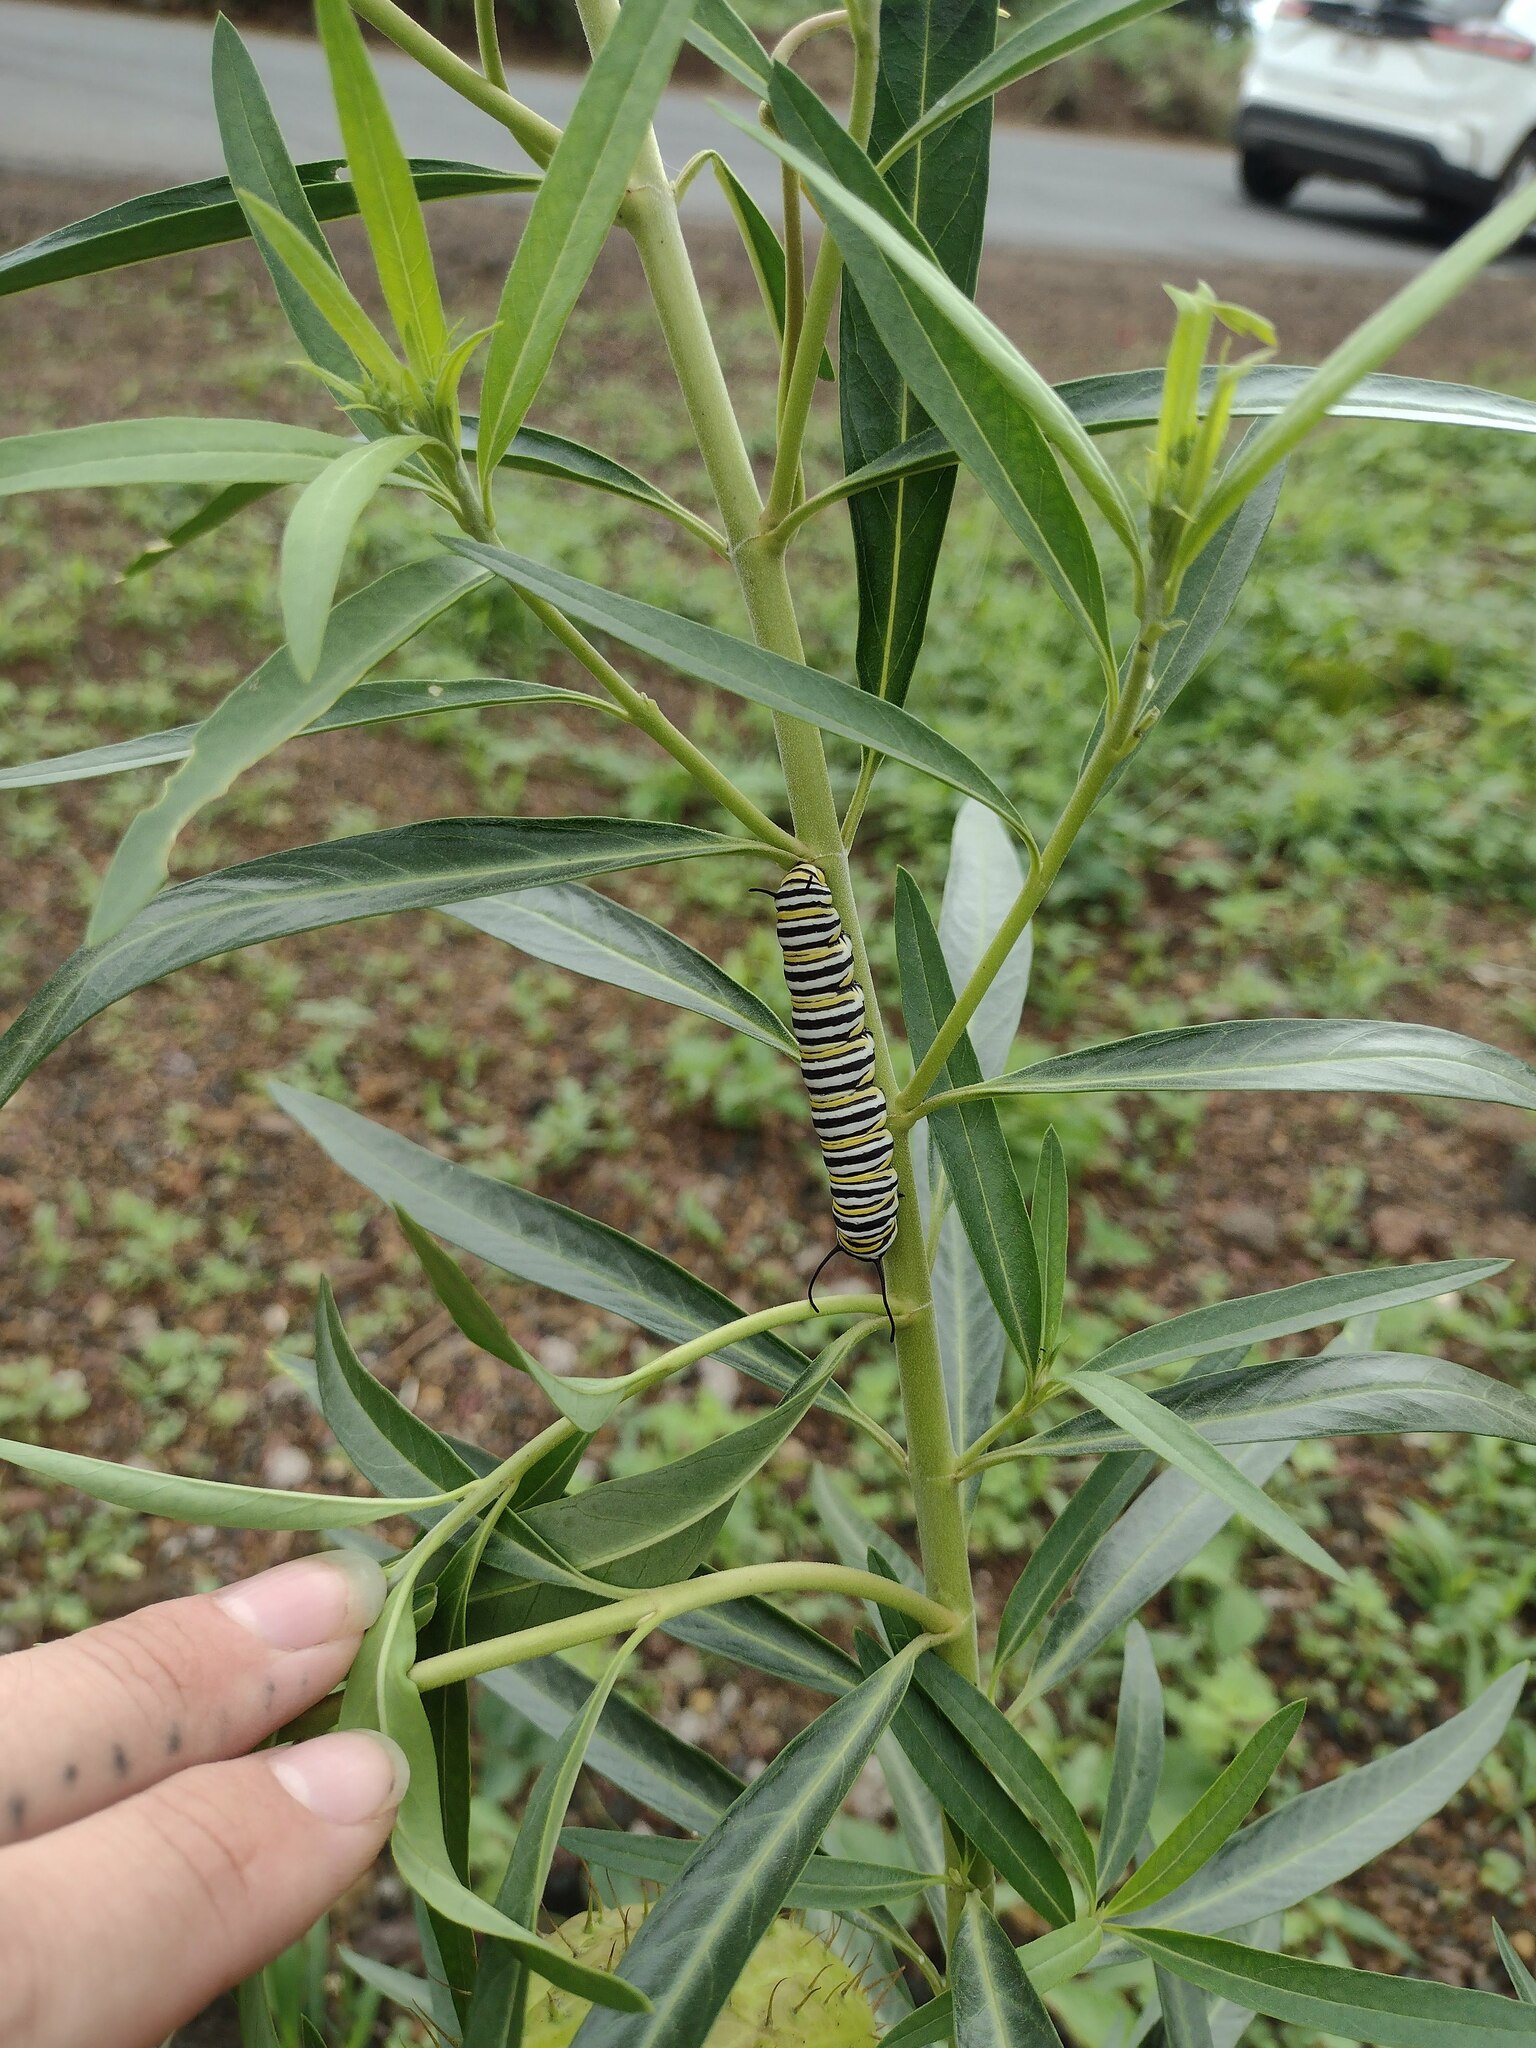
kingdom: Animalia
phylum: Arthropoda
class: Insecta
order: Lepidoptera
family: Nymphalidae
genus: Danaus
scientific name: Danaus plexippus
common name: Monarch
